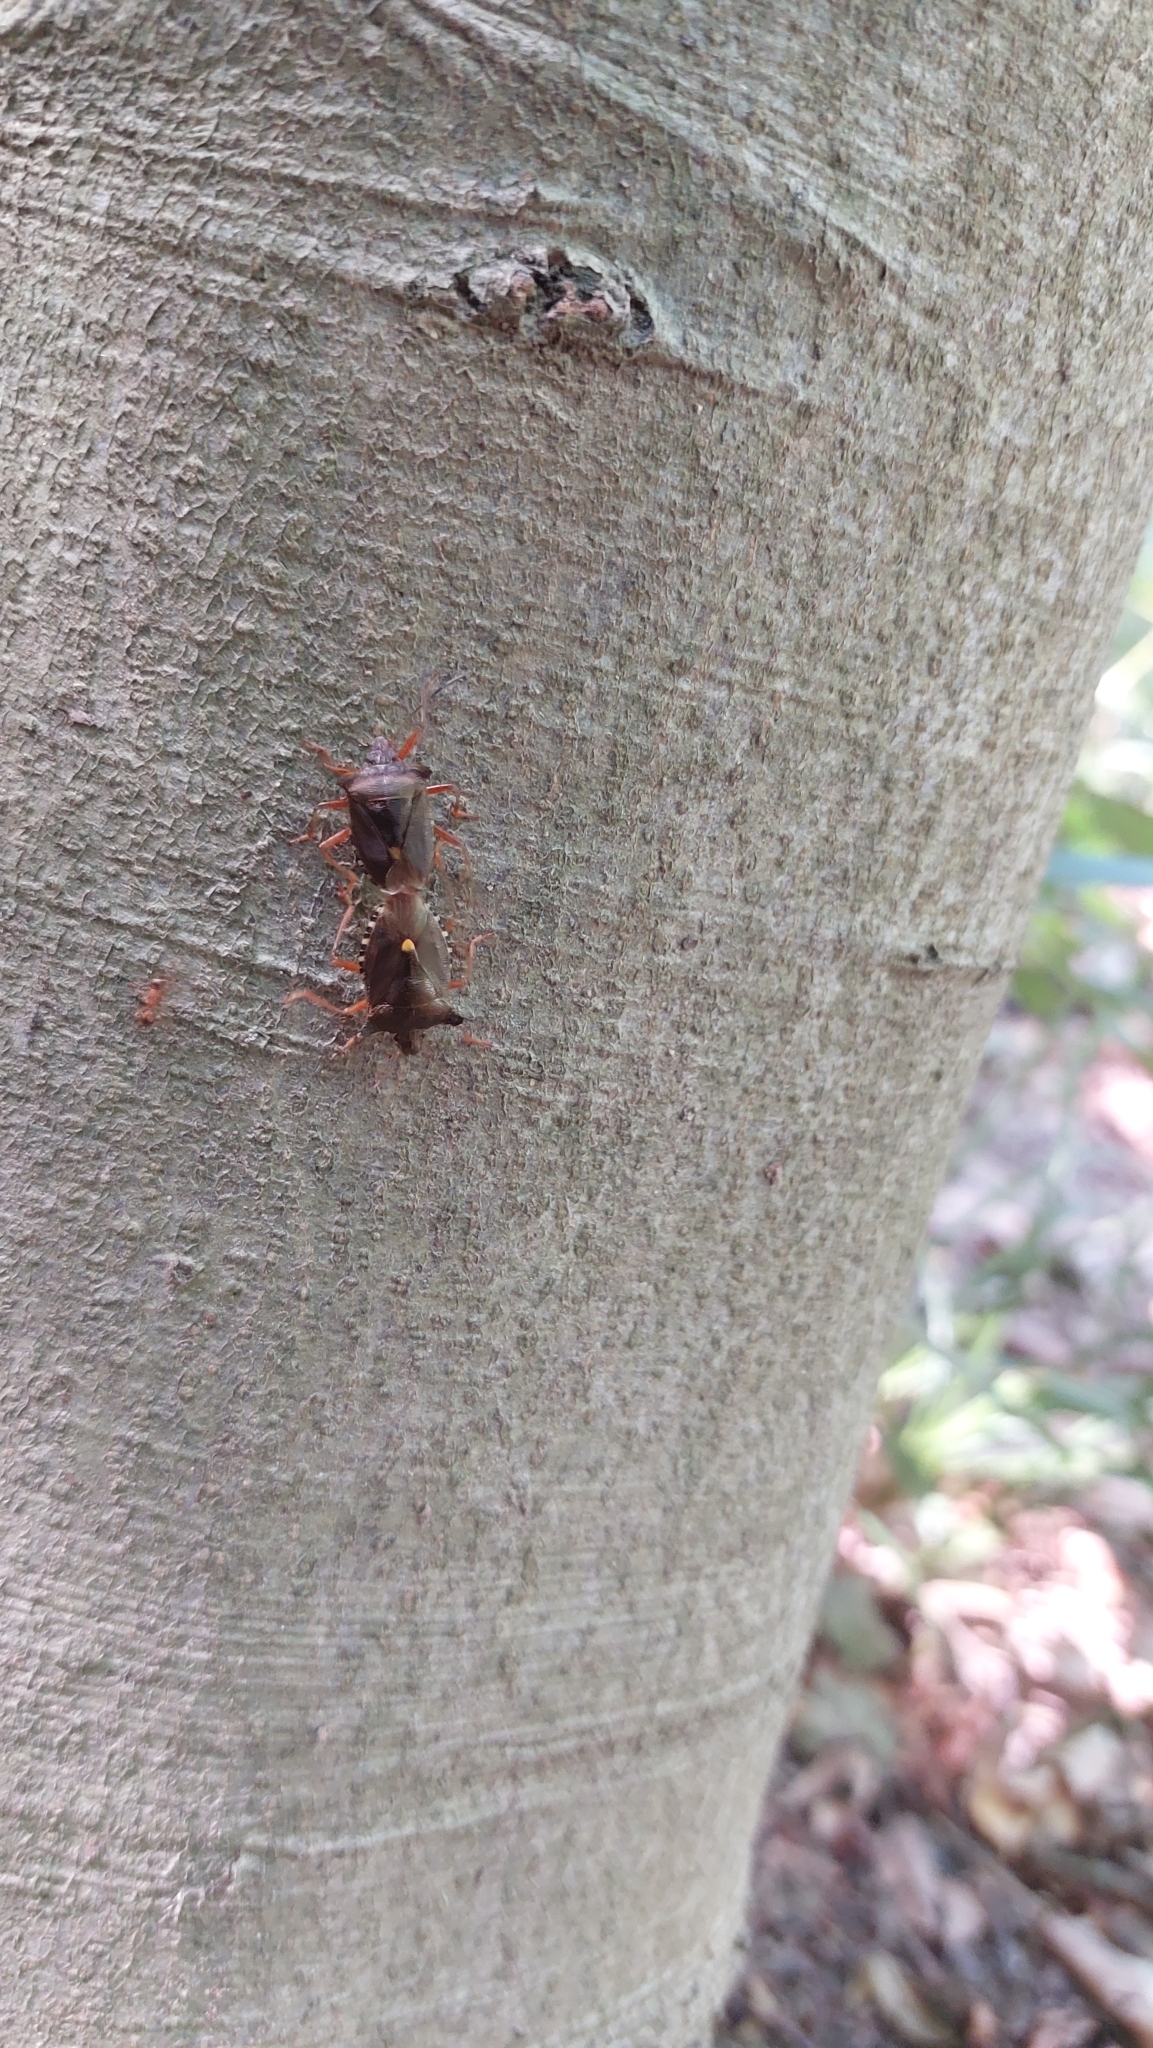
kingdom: Animalia
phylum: Arthropoda
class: Insecta
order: Hemiptera
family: Pentatomidae
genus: Pentatoma
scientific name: Pentatoma rufipes
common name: Forest bug
